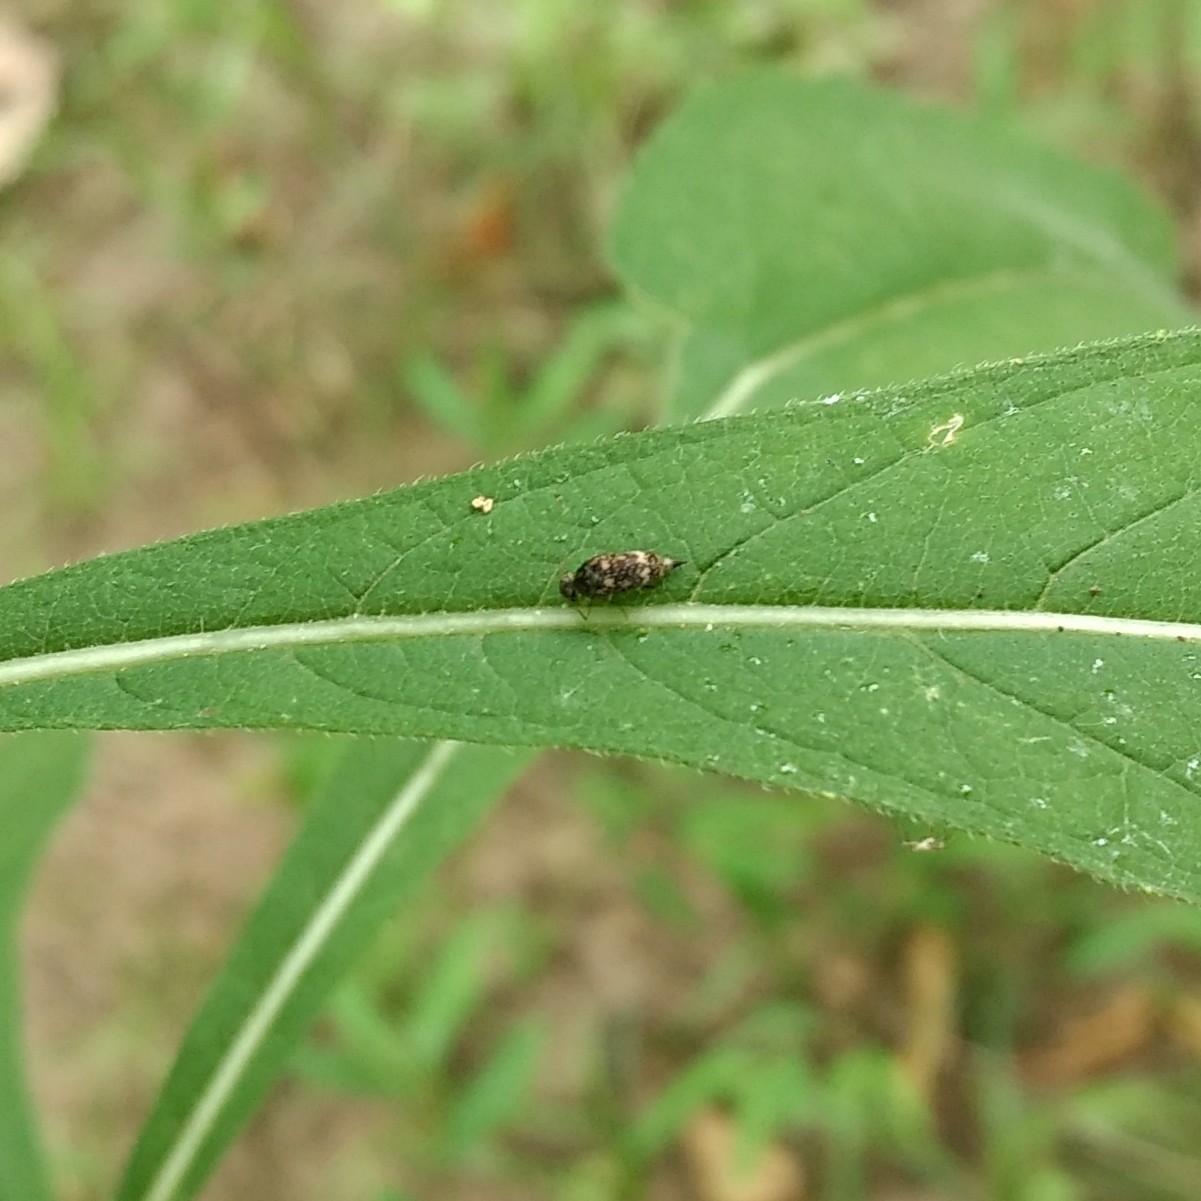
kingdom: Animalia
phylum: Arthropoda
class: Insecta
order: Coleoptera
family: Mordellidae
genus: Mordellaria
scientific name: Mordellaria serval
